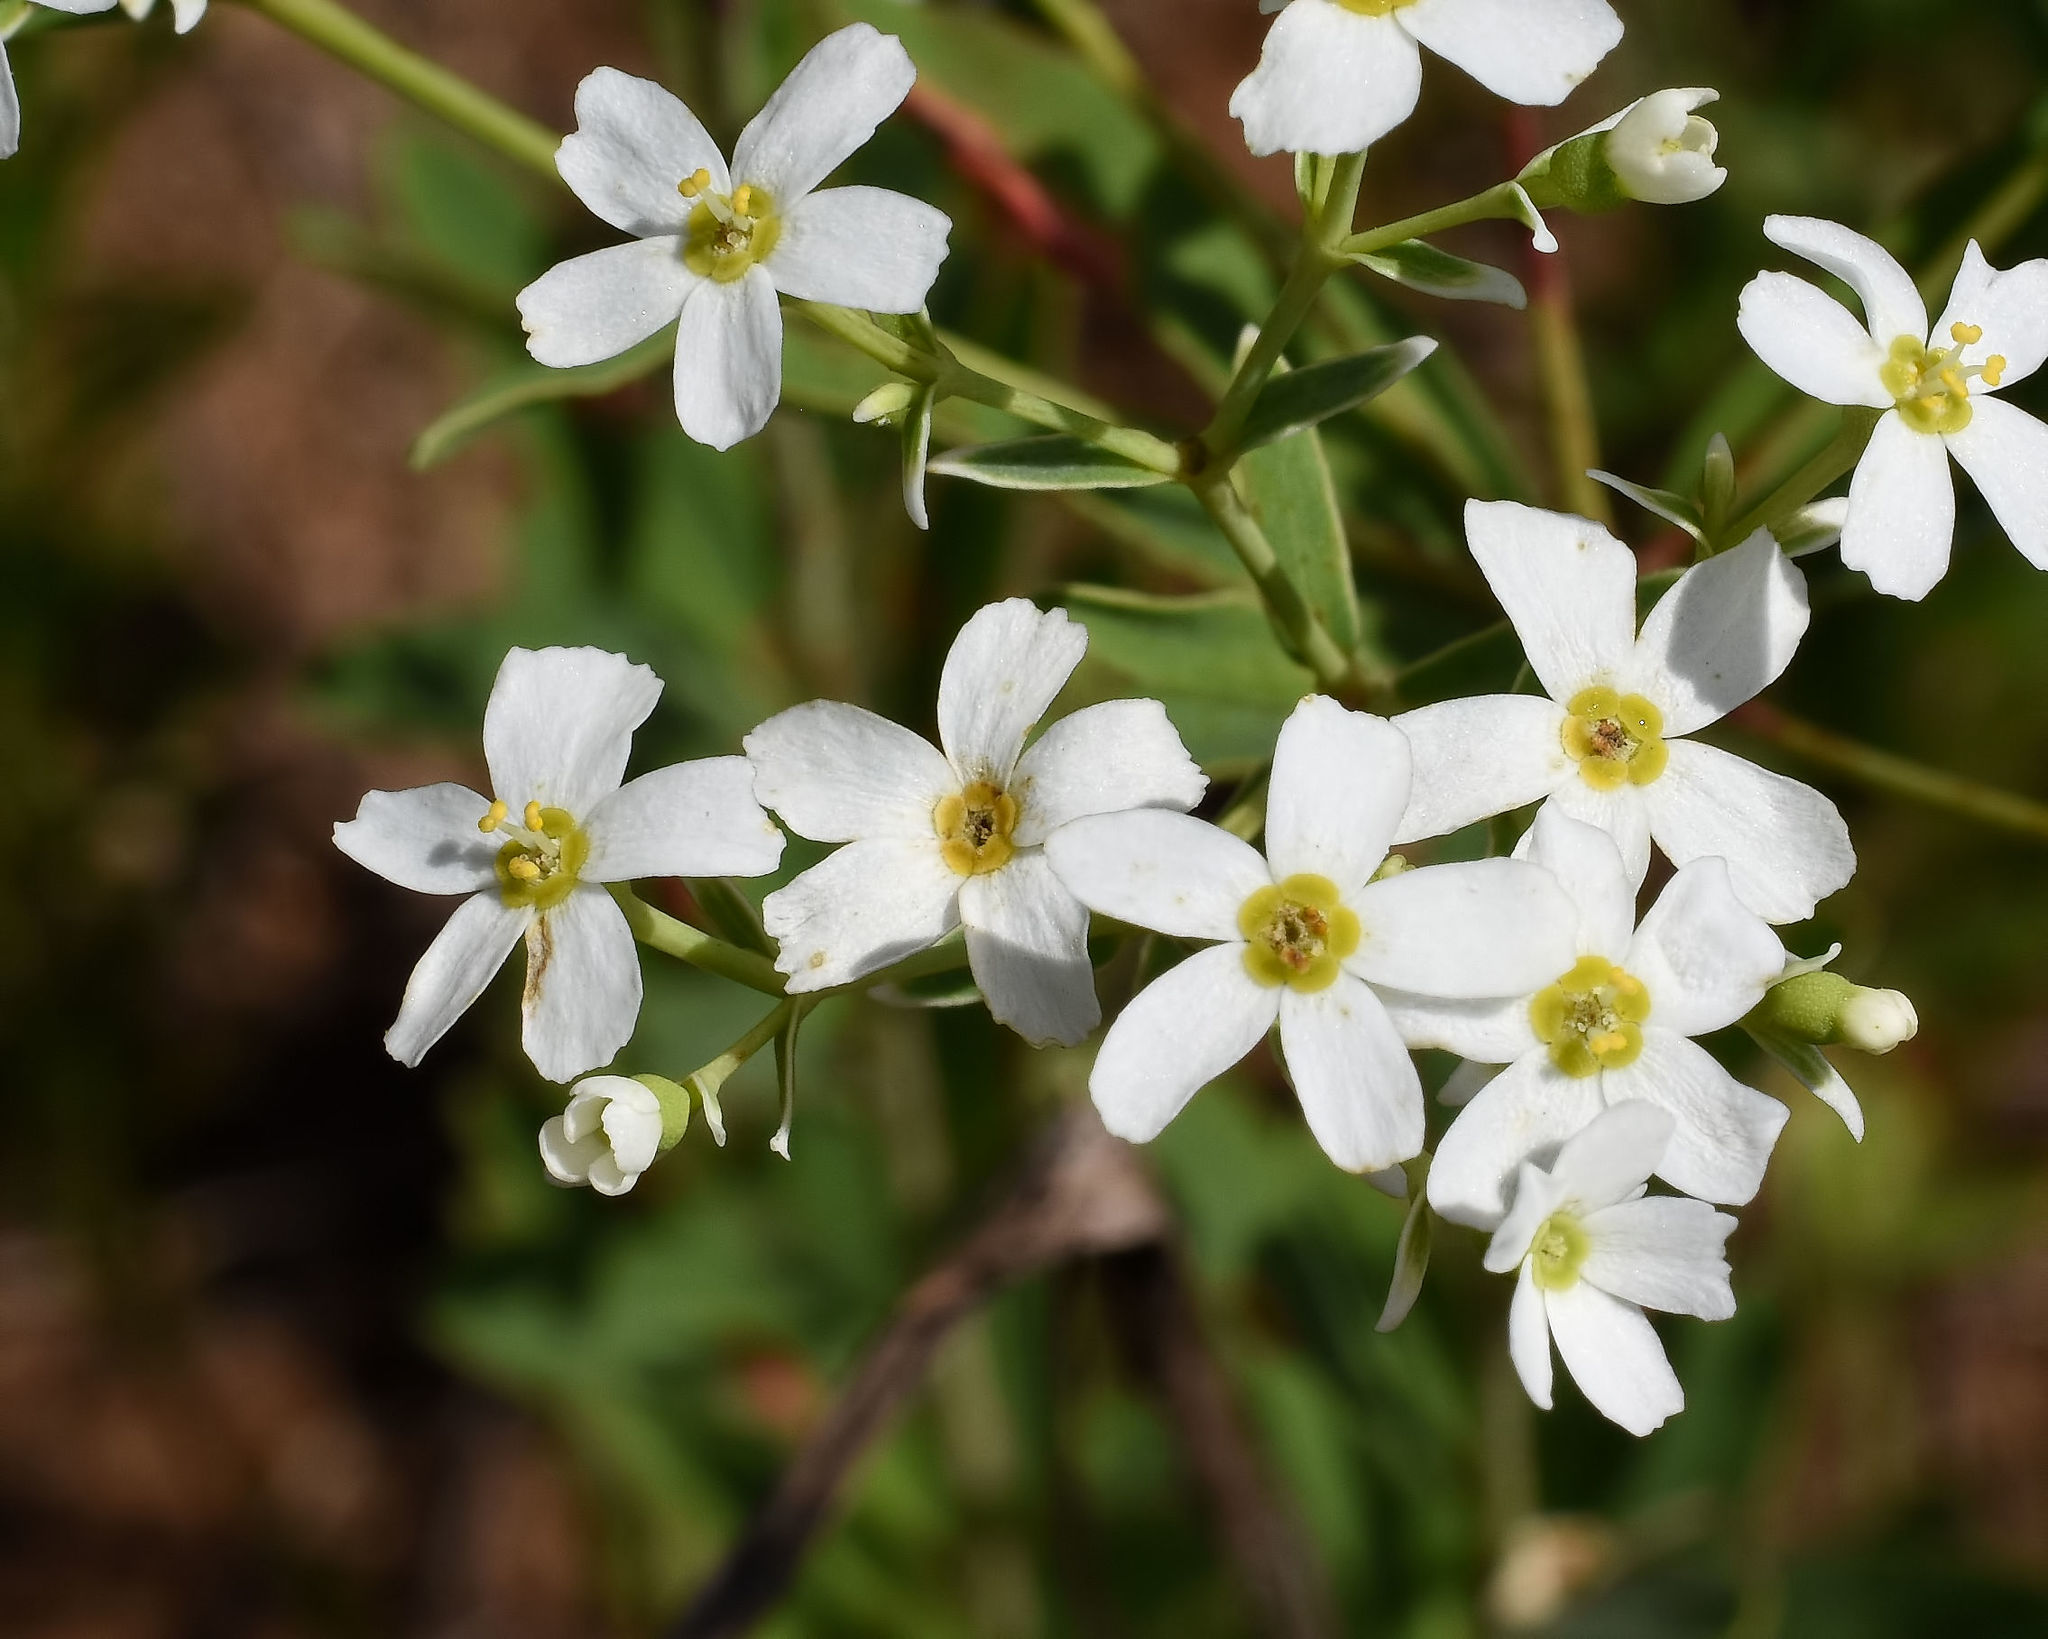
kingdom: Plantae
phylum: Tracheophyta
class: Magnoliopsida
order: Malpighiales
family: Euphorbiaceae
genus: Euphorbia
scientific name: Euphorbia corollata
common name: Flowering spurge
